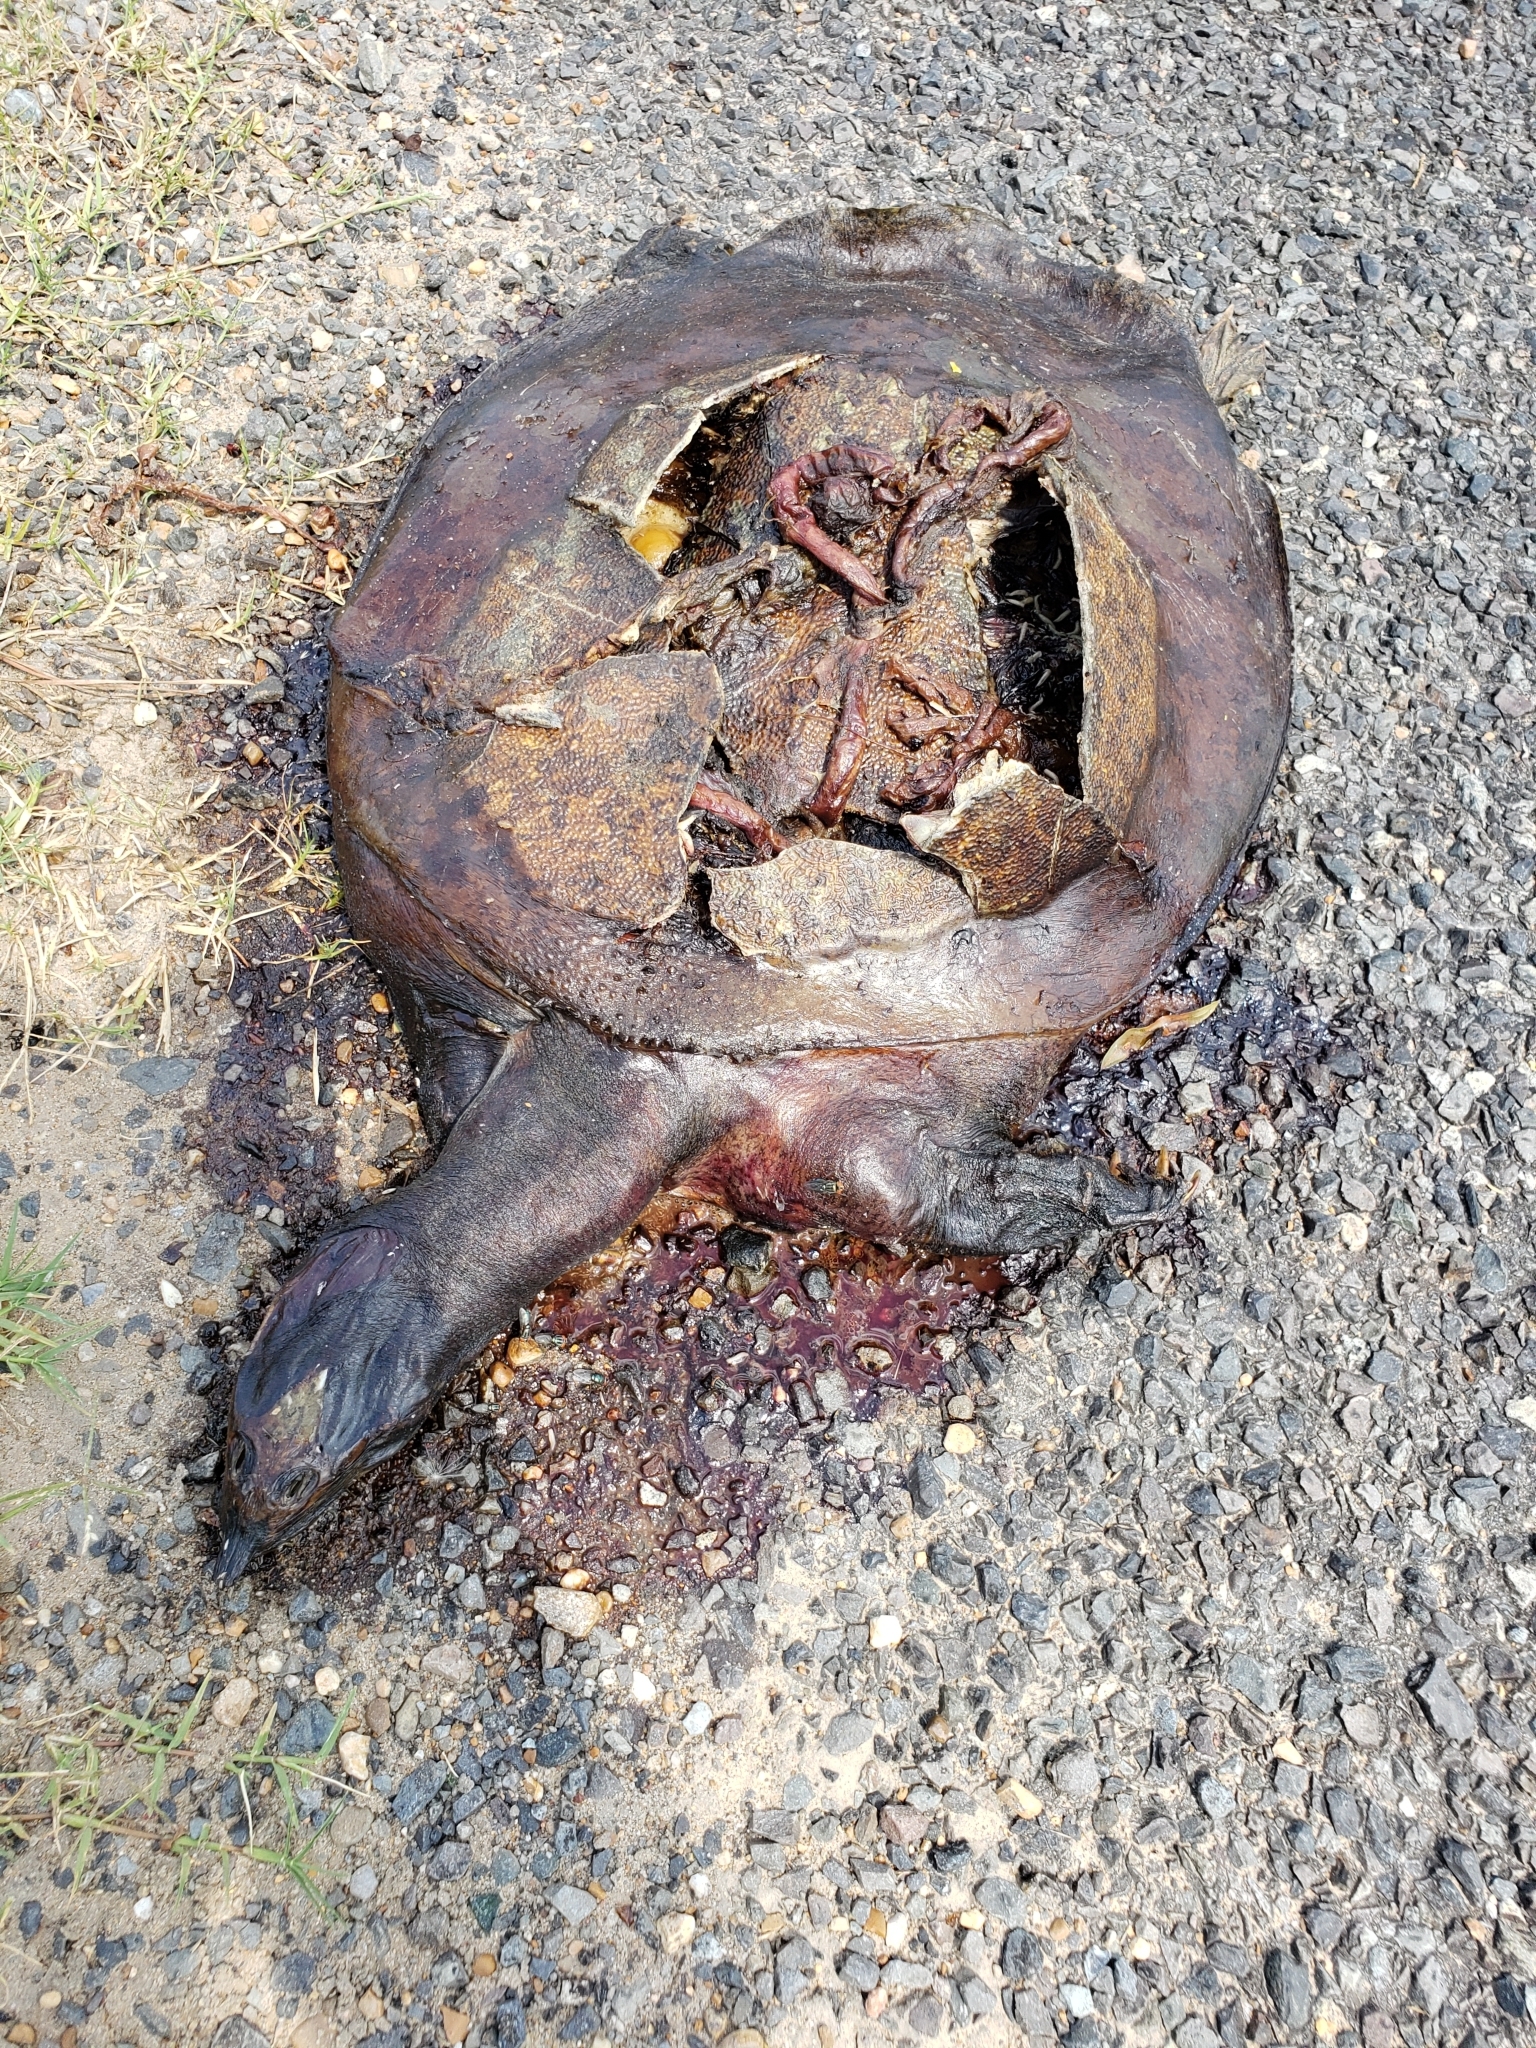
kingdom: Animalia
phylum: Chordata
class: Testudines
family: Trionychidae
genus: Apalone
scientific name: Apalone spinifera
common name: Spiny softshell turtle
